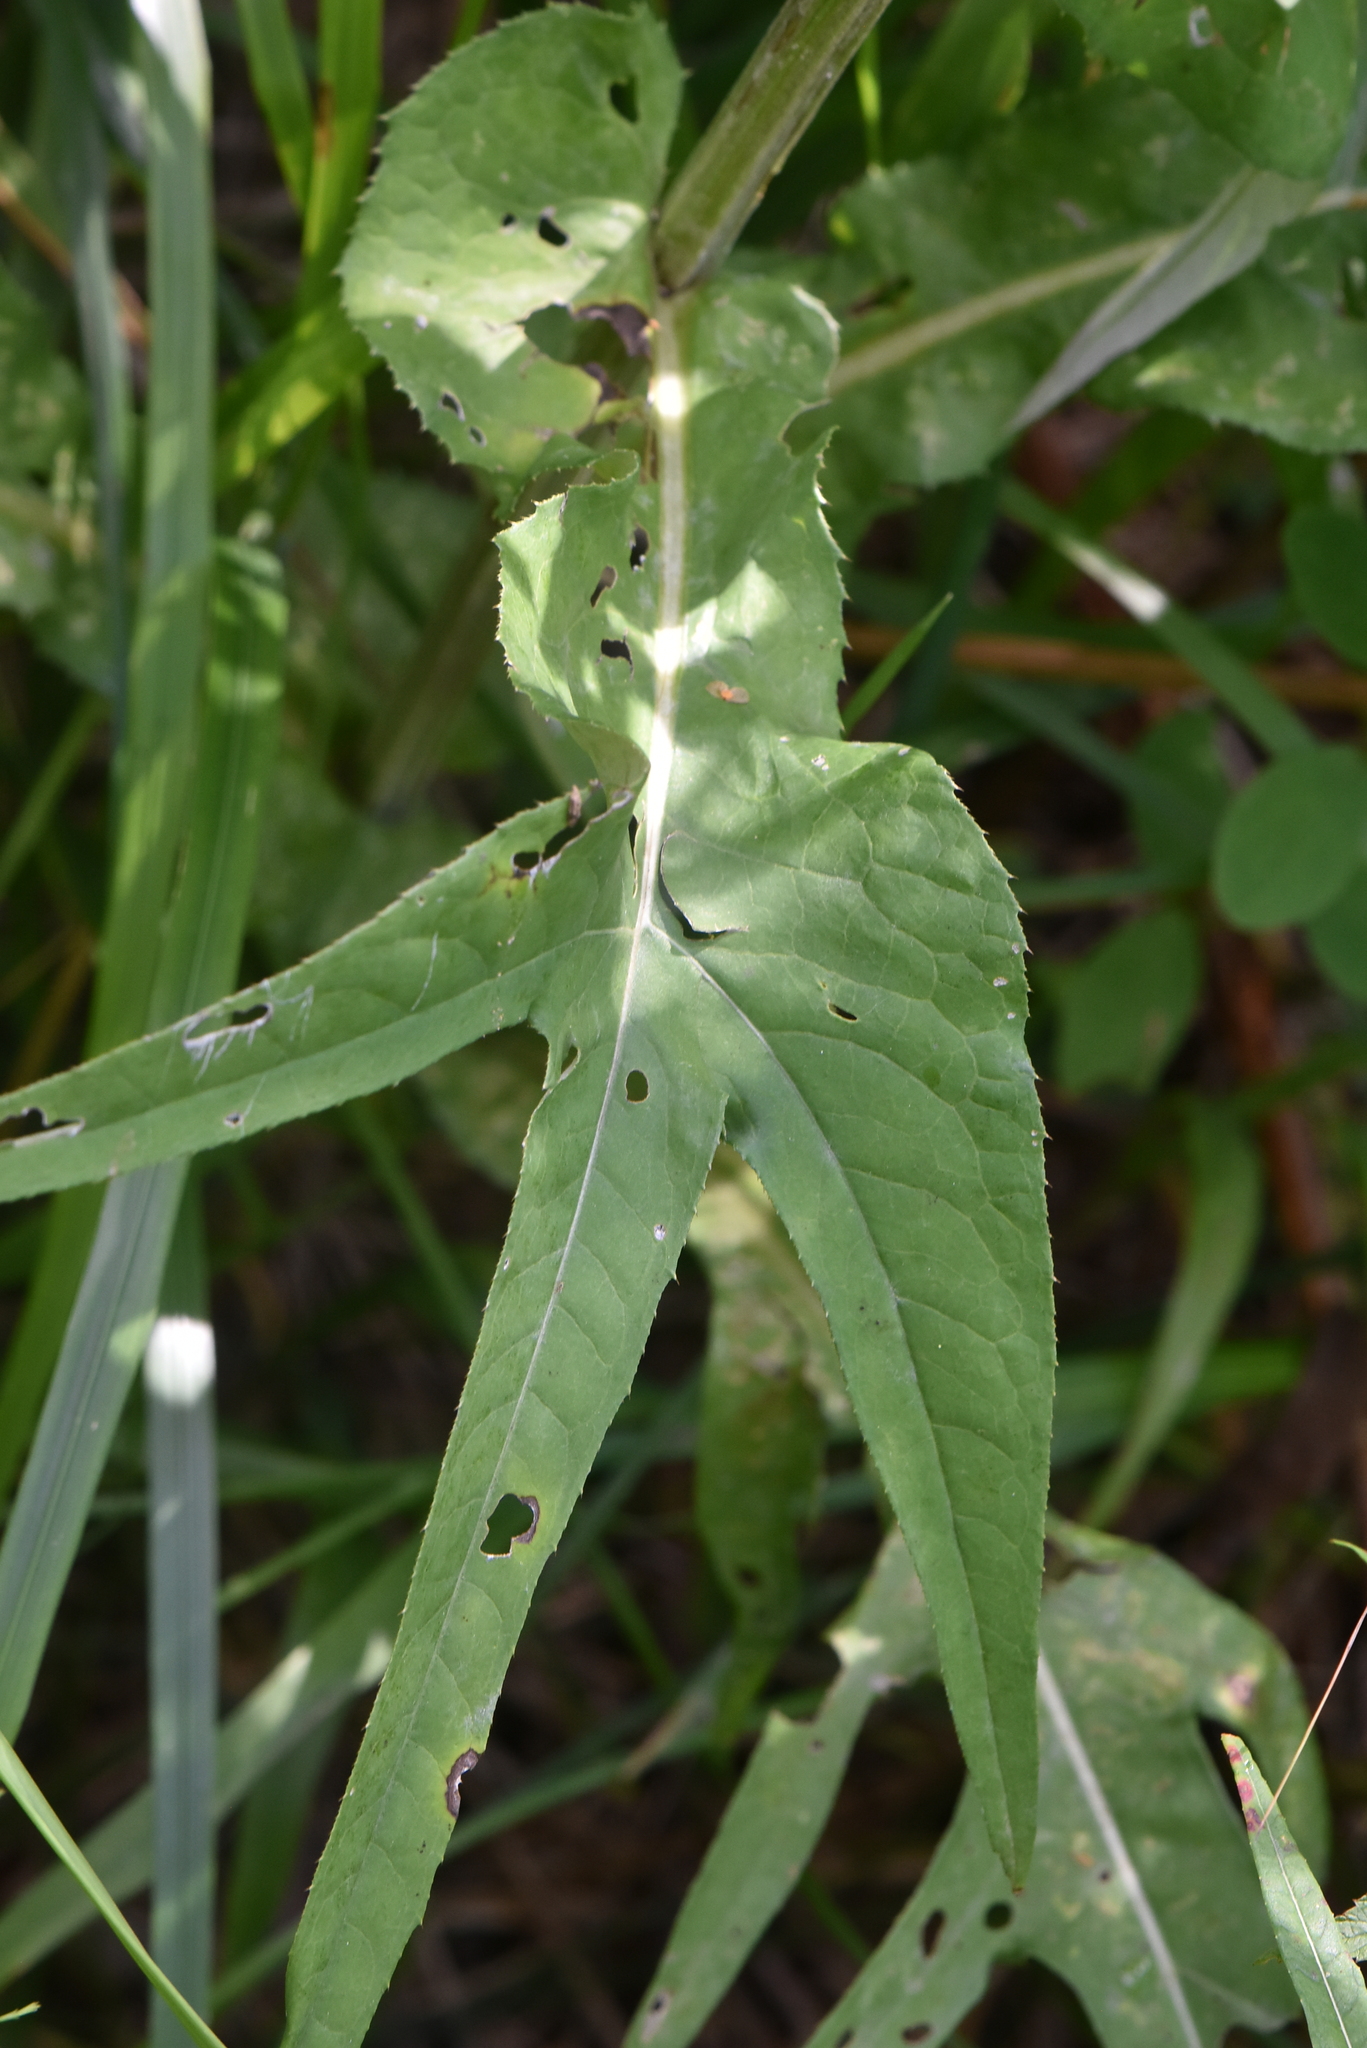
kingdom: Plantae
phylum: Tracheophyta
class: Magnoliopsida
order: Asterales
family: Asteraceae
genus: Cirsium
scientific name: Cirsium heterophyllum
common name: Melancholy thistle
